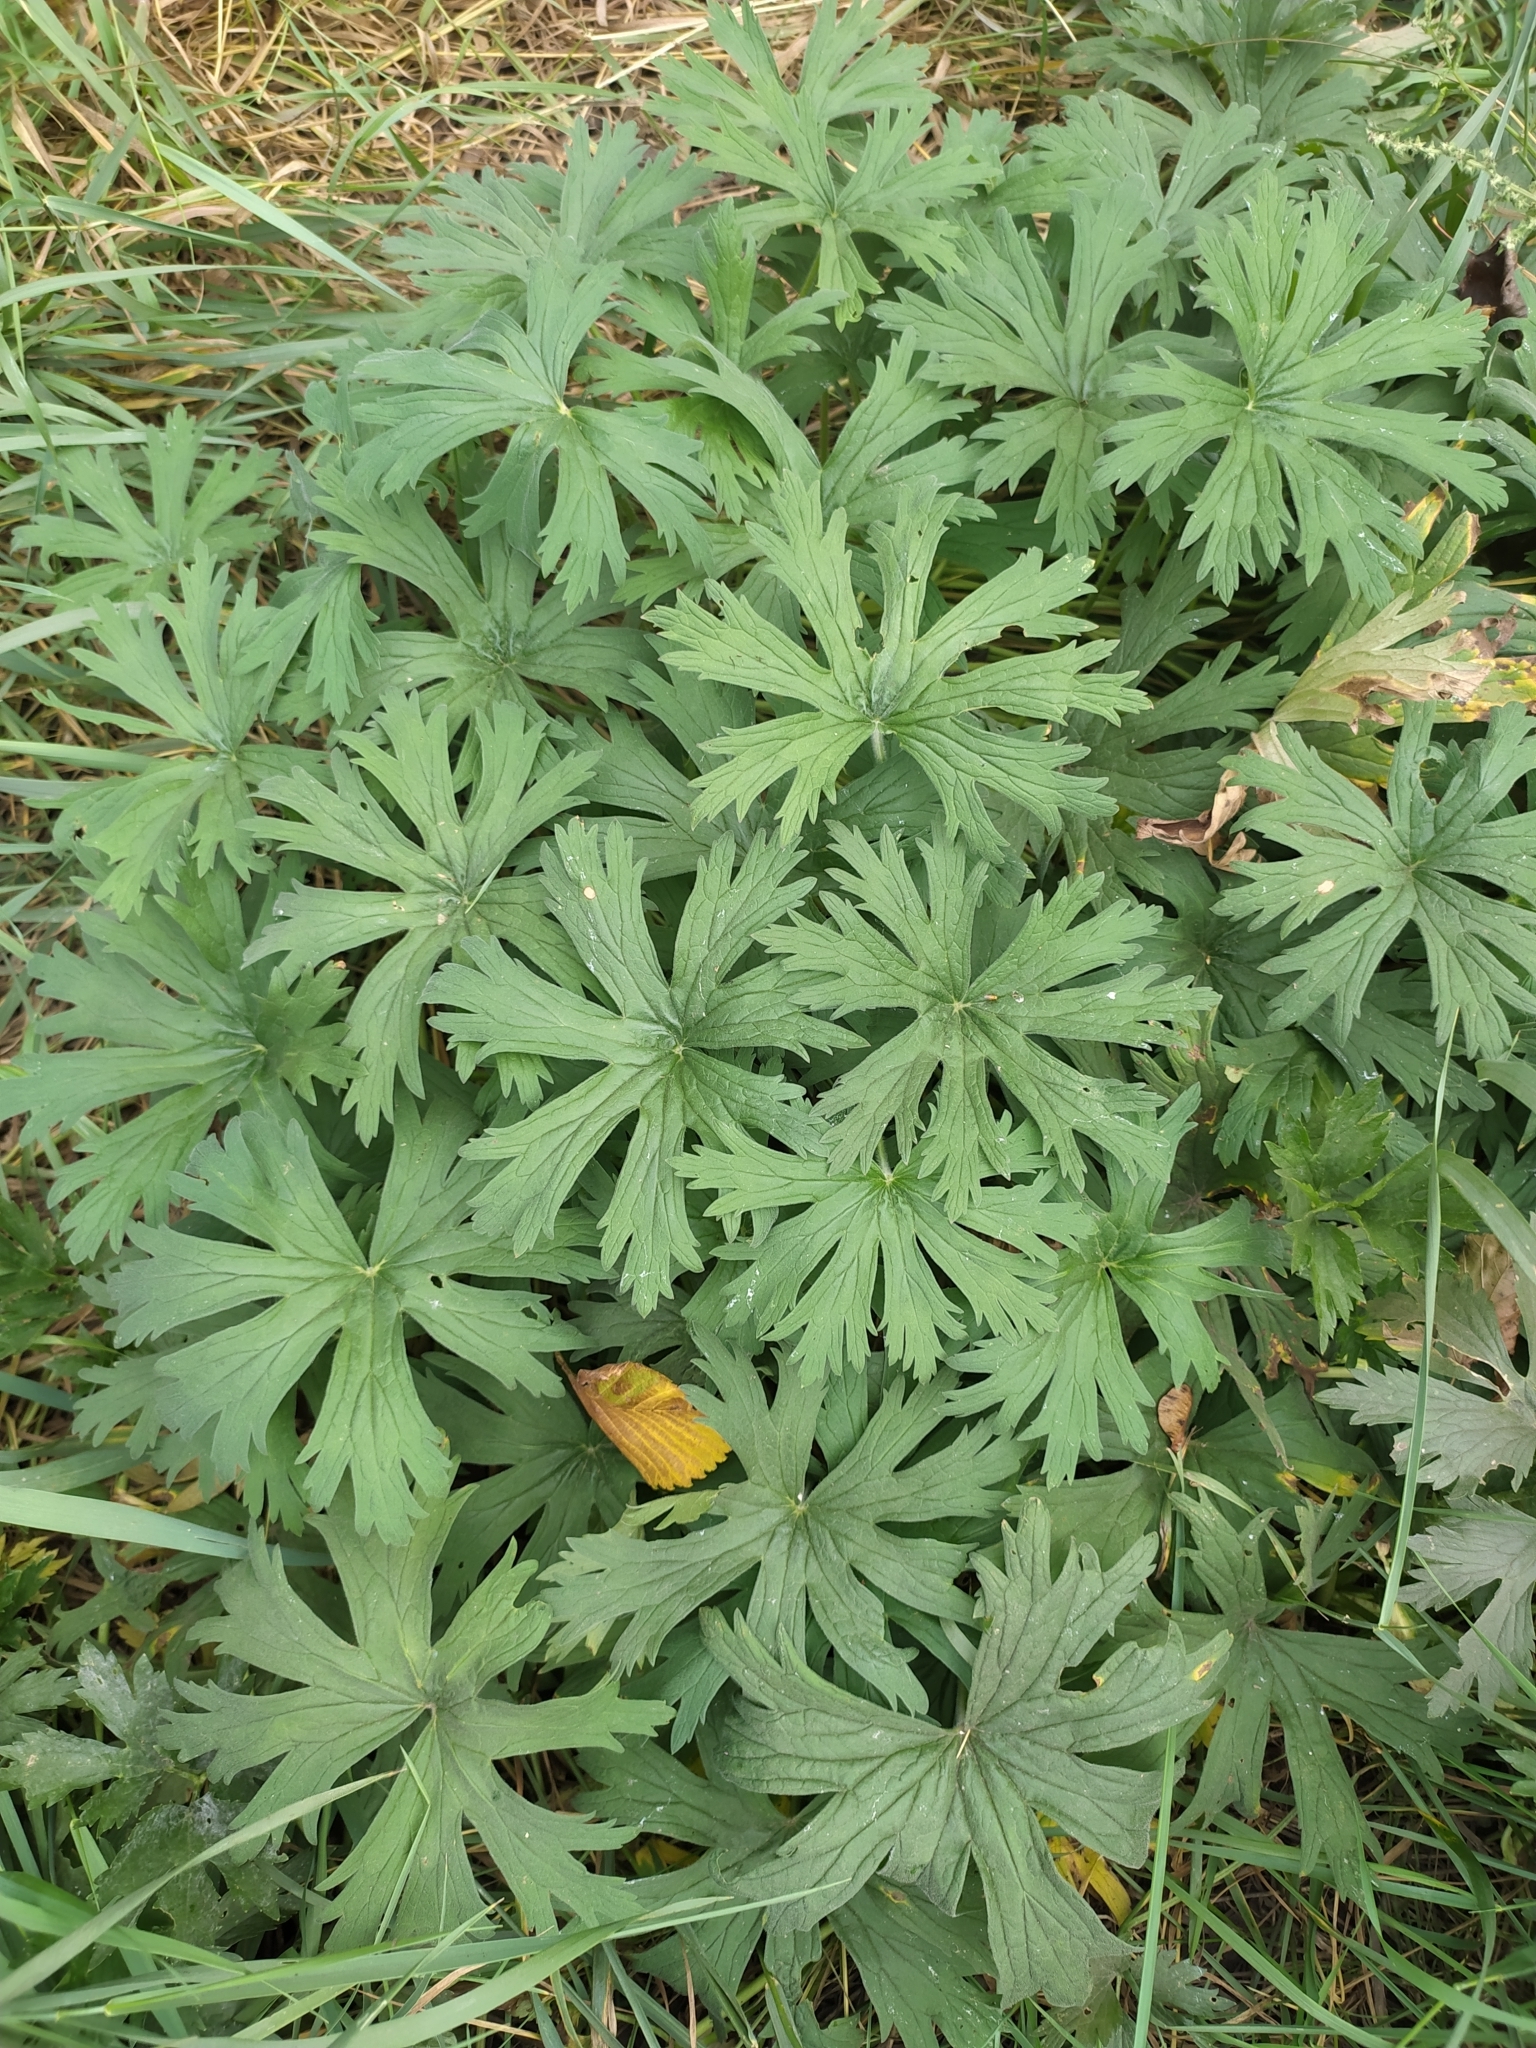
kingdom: Plantae
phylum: Tracheophyta
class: Magnoliopsida
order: Geraniales
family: Geraniaceae
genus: Geranium
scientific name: Geranium pratense
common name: Meadow crane's-bill
